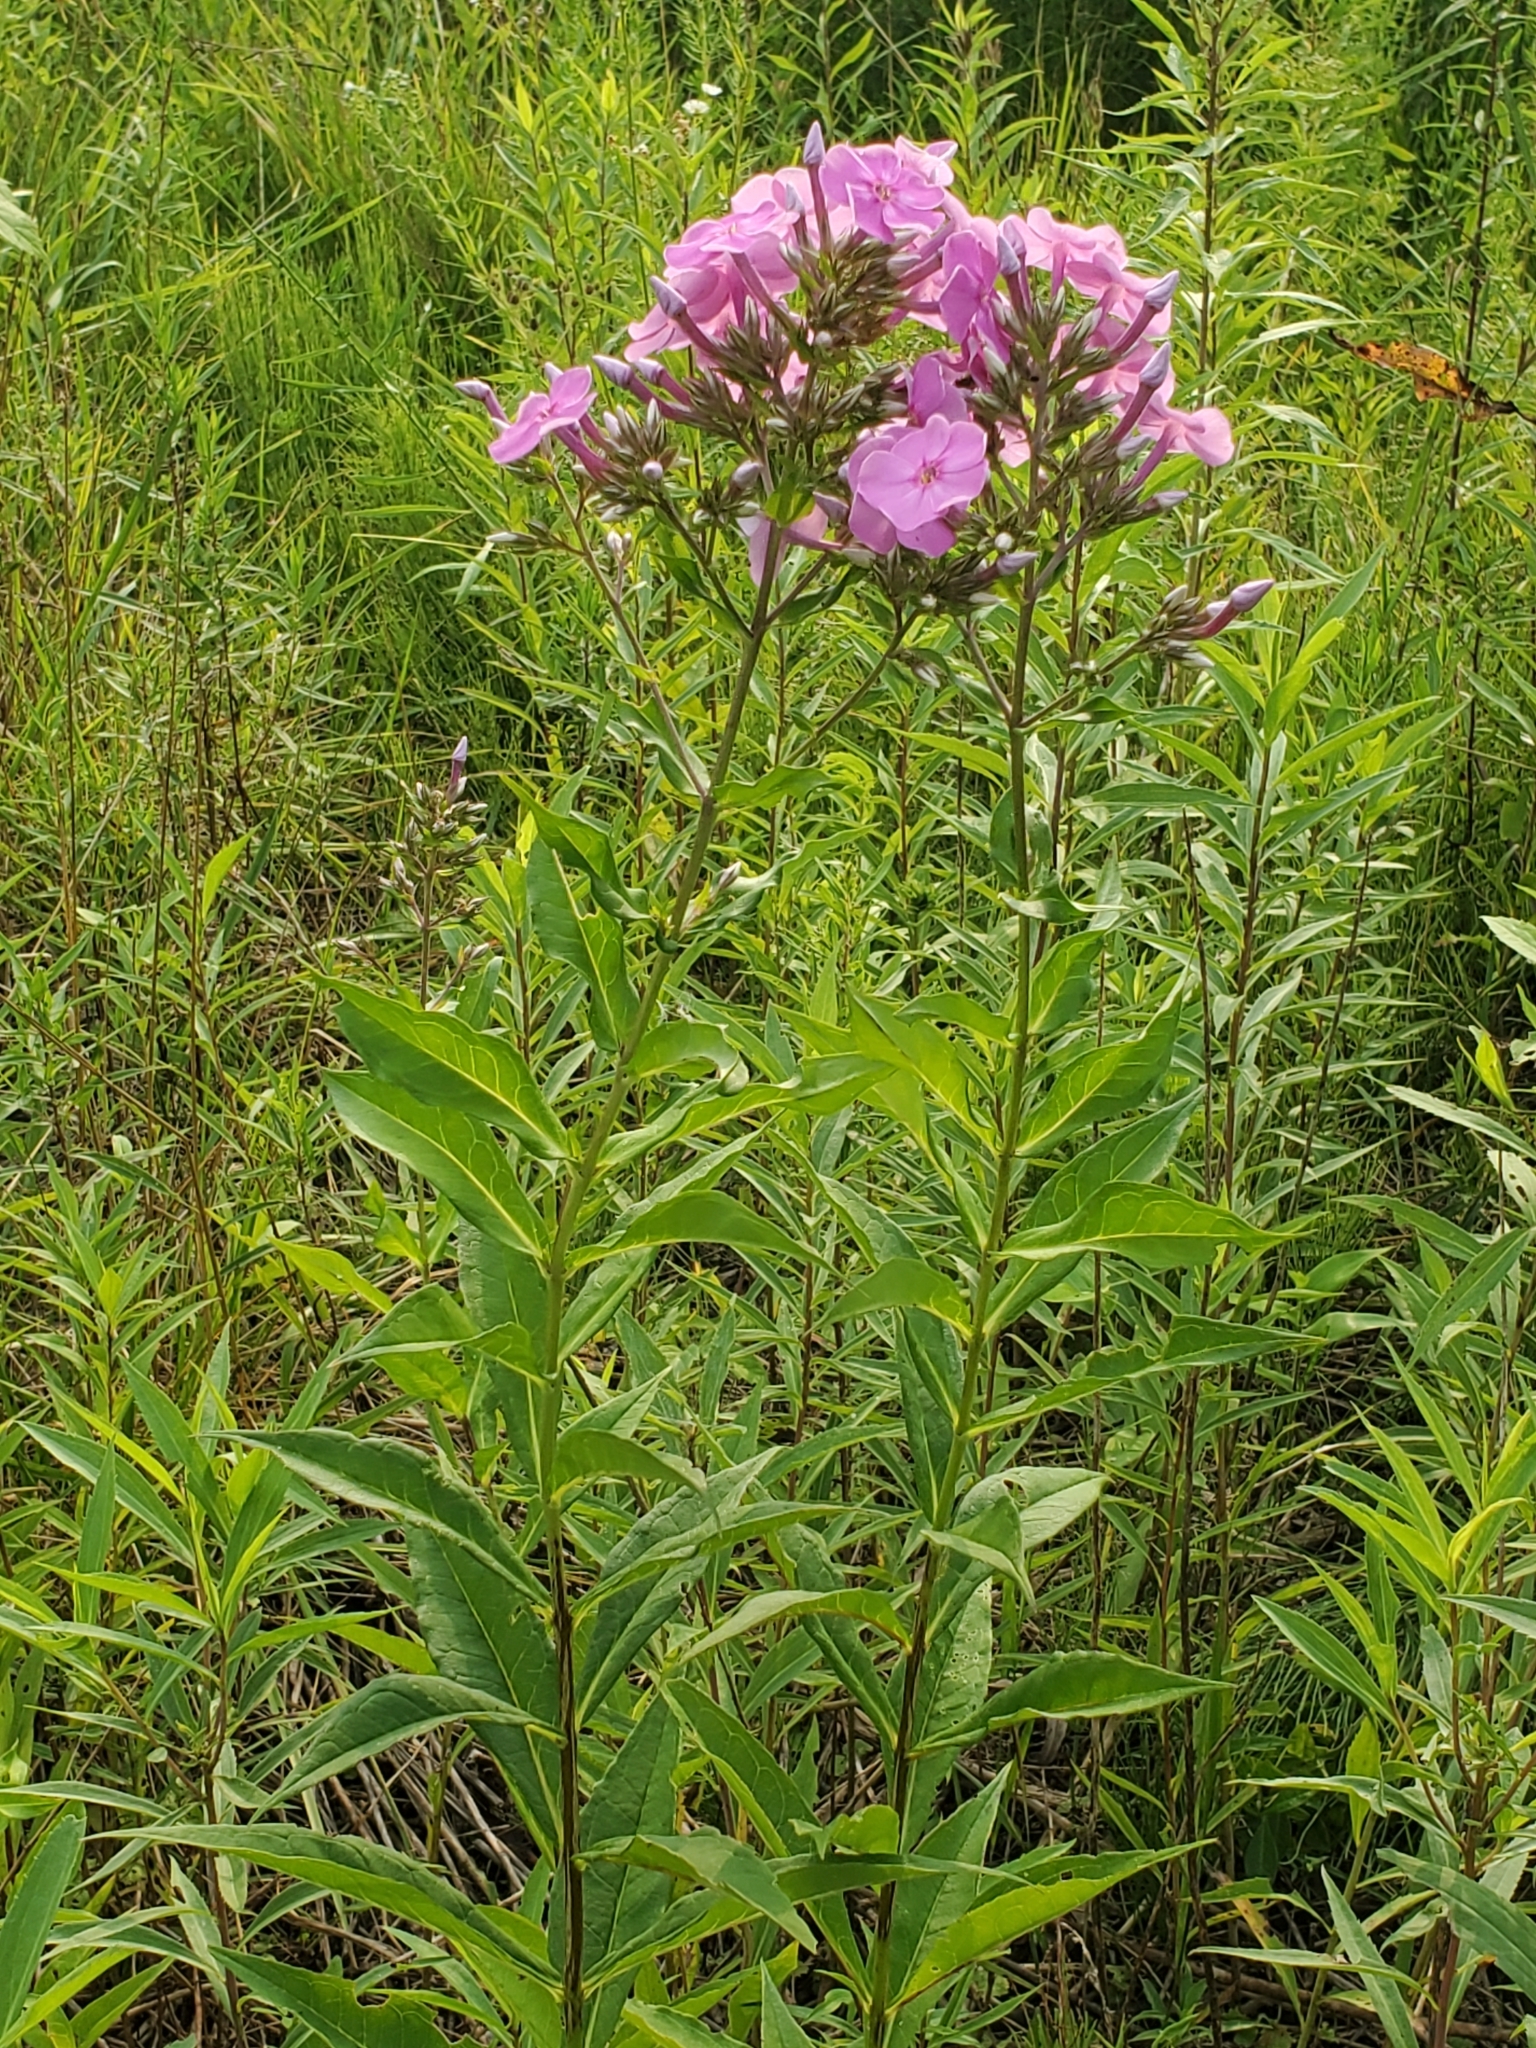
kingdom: Plantae
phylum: Tracheophyta
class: Magnoliopsida
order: Ericales
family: Polemoniaceae
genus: Phlox
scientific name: Phlox paniculata
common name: Fall phlox
